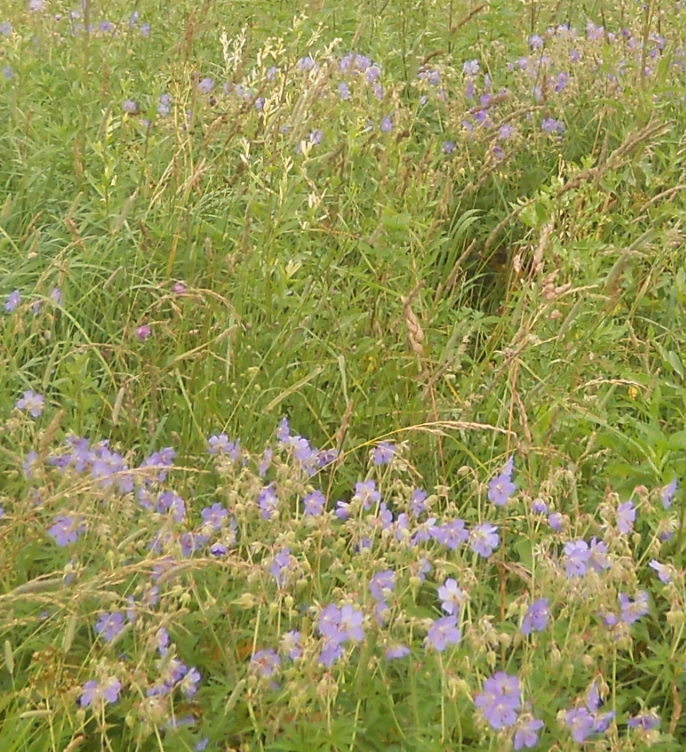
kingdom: Plantae
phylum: Tracheophyta
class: Magnoliopsida
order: Geraniales
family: Geraniaceae
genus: Geranium
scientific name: Geranium pratense
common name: Meadow crane's-bill
